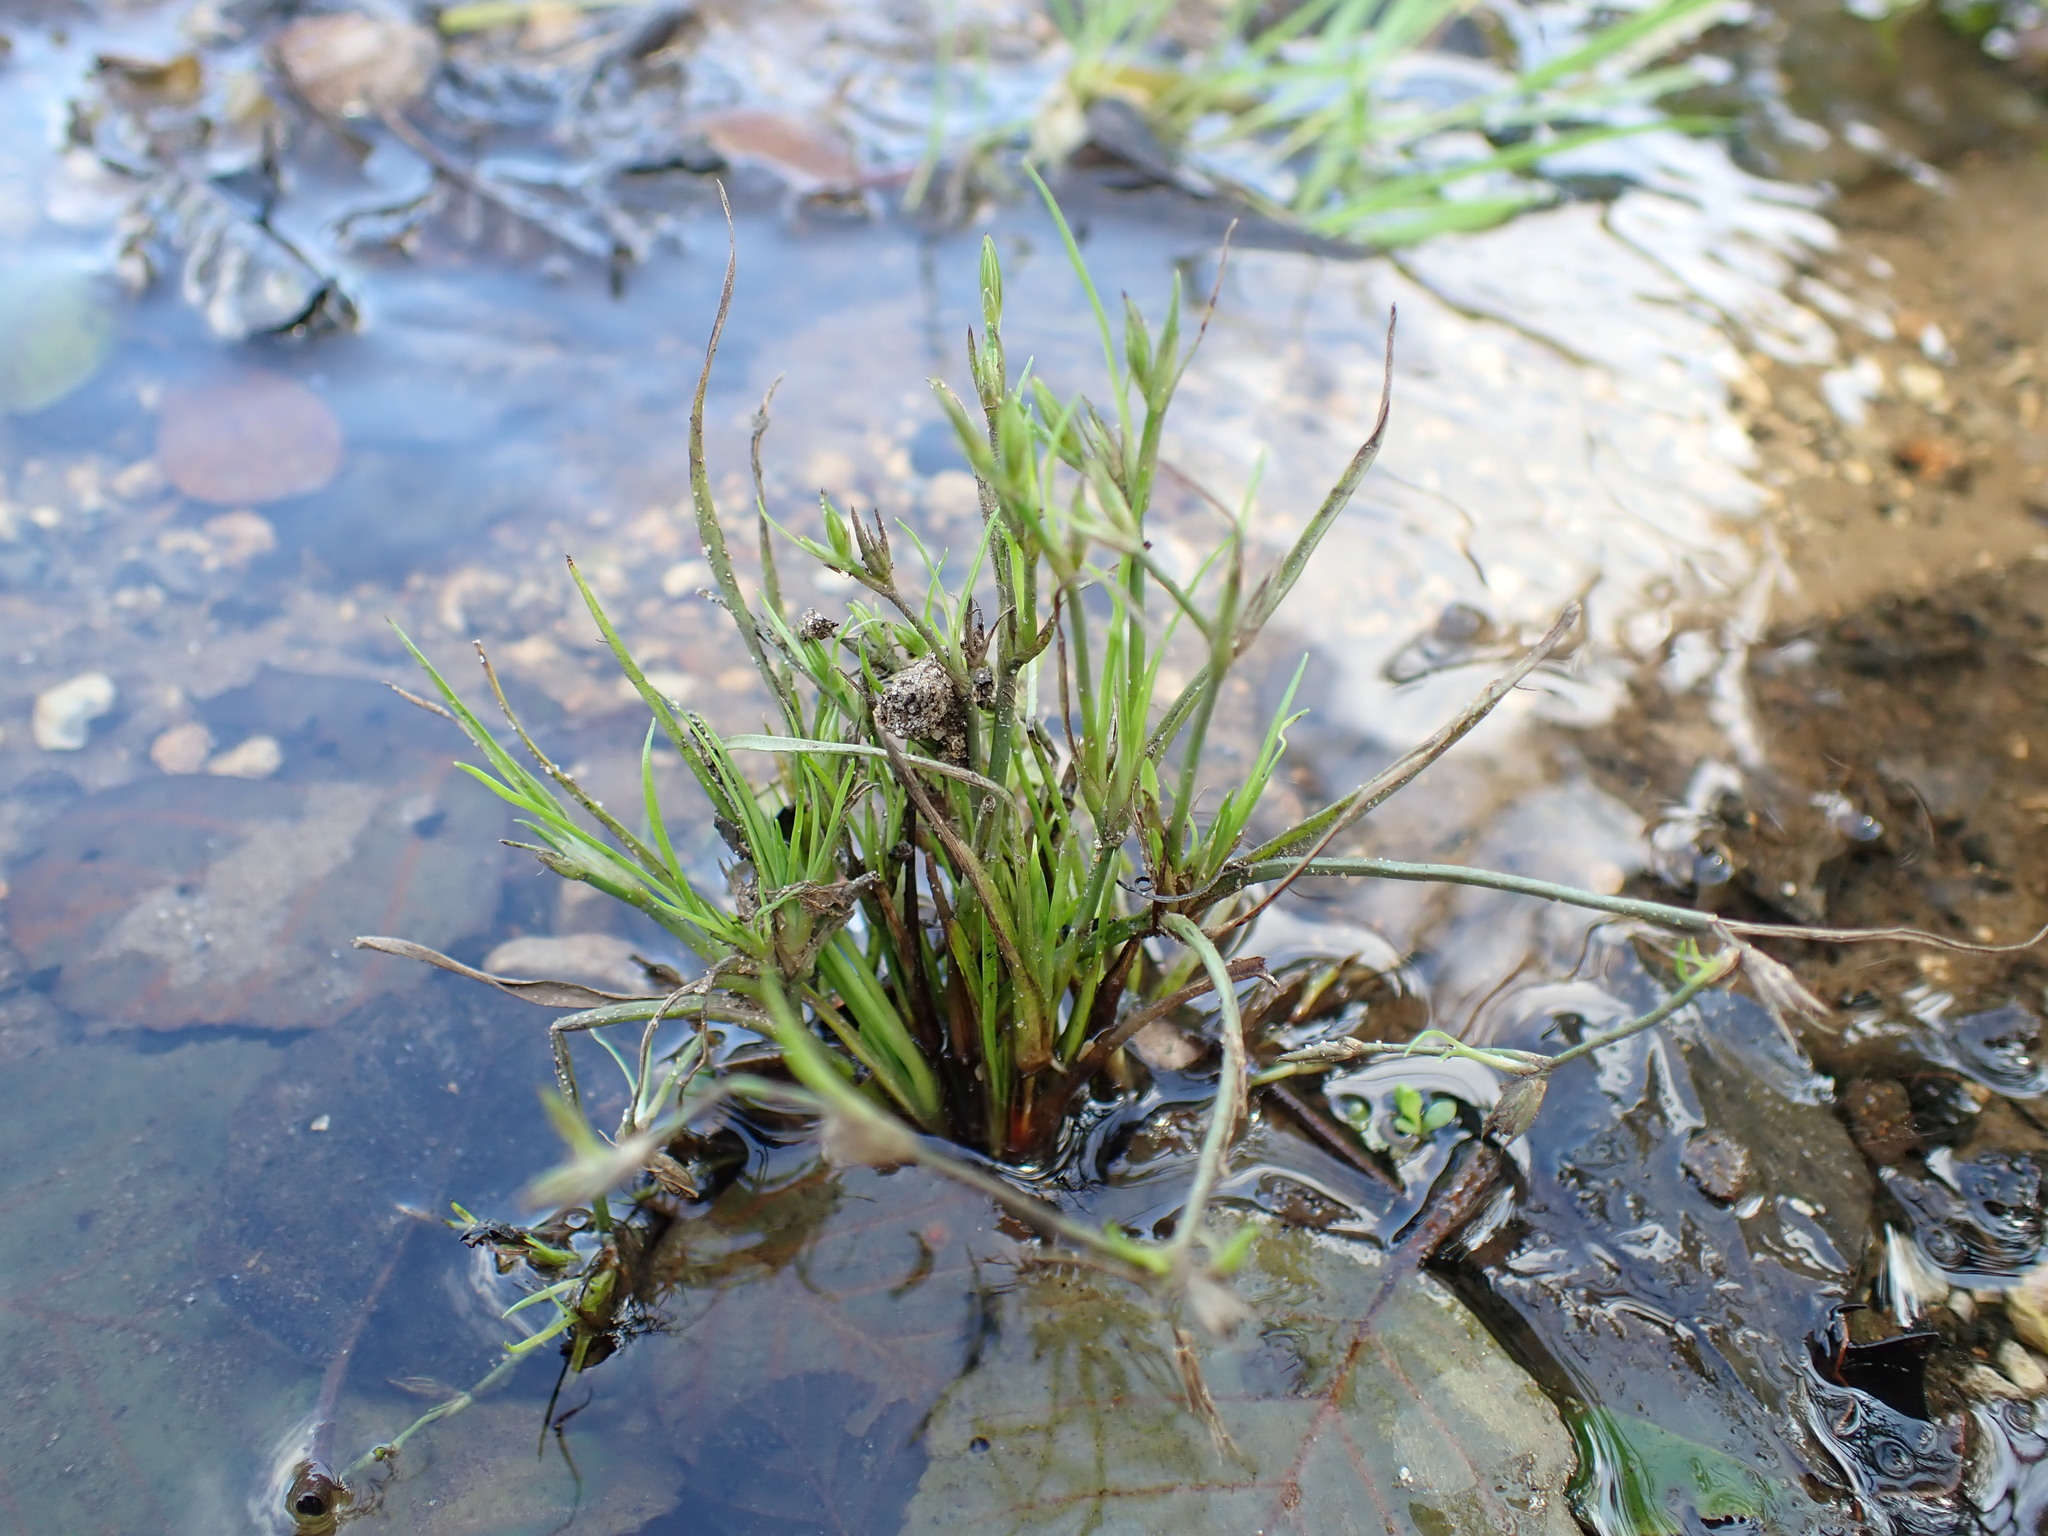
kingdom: Plantae
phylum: Tracheophyta
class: Liliopsida
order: Poales
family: Juncaceae
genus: Juncus
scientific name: Juncus tenuis
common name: Slender rush
